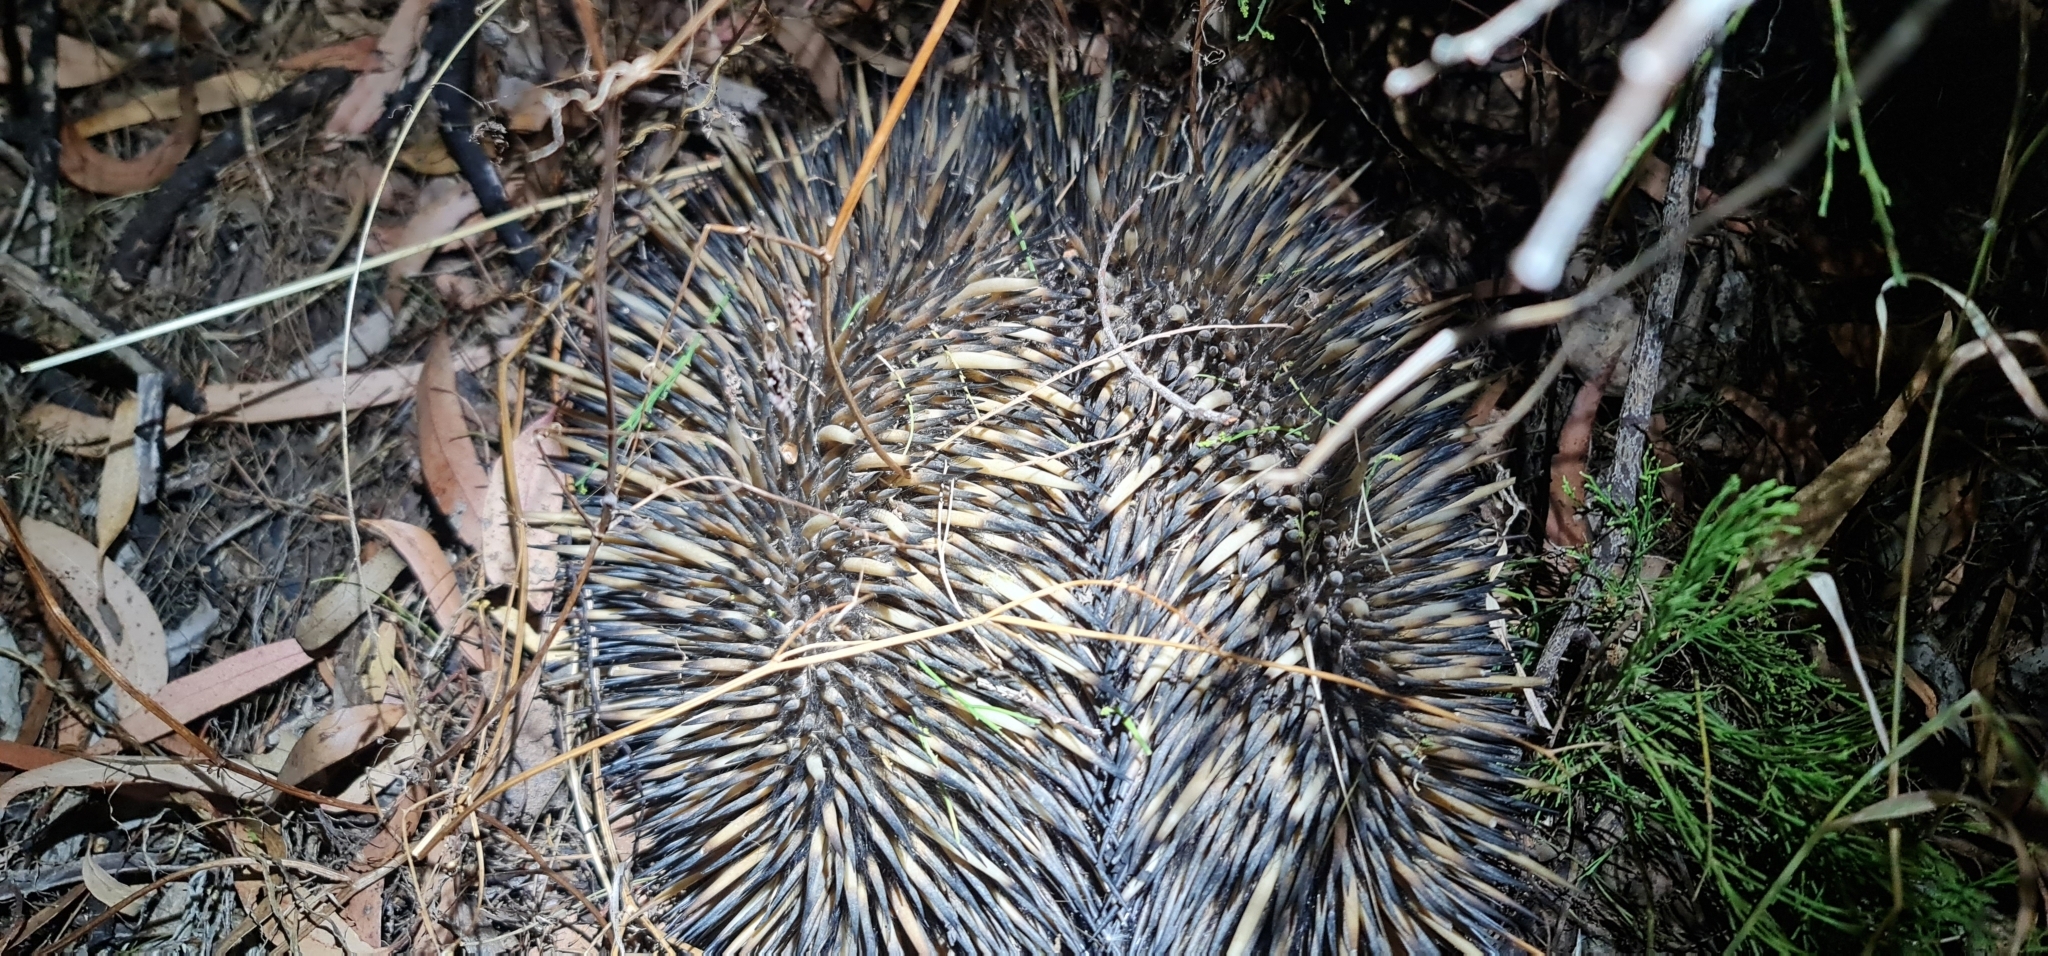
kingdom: Animalia
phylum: Chordata
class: Mammalia
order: Monotremata
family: Tachyglossidae
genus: Tachyglossus
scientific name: Tachyglossus aculeatus
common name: Short-beaked echidna
